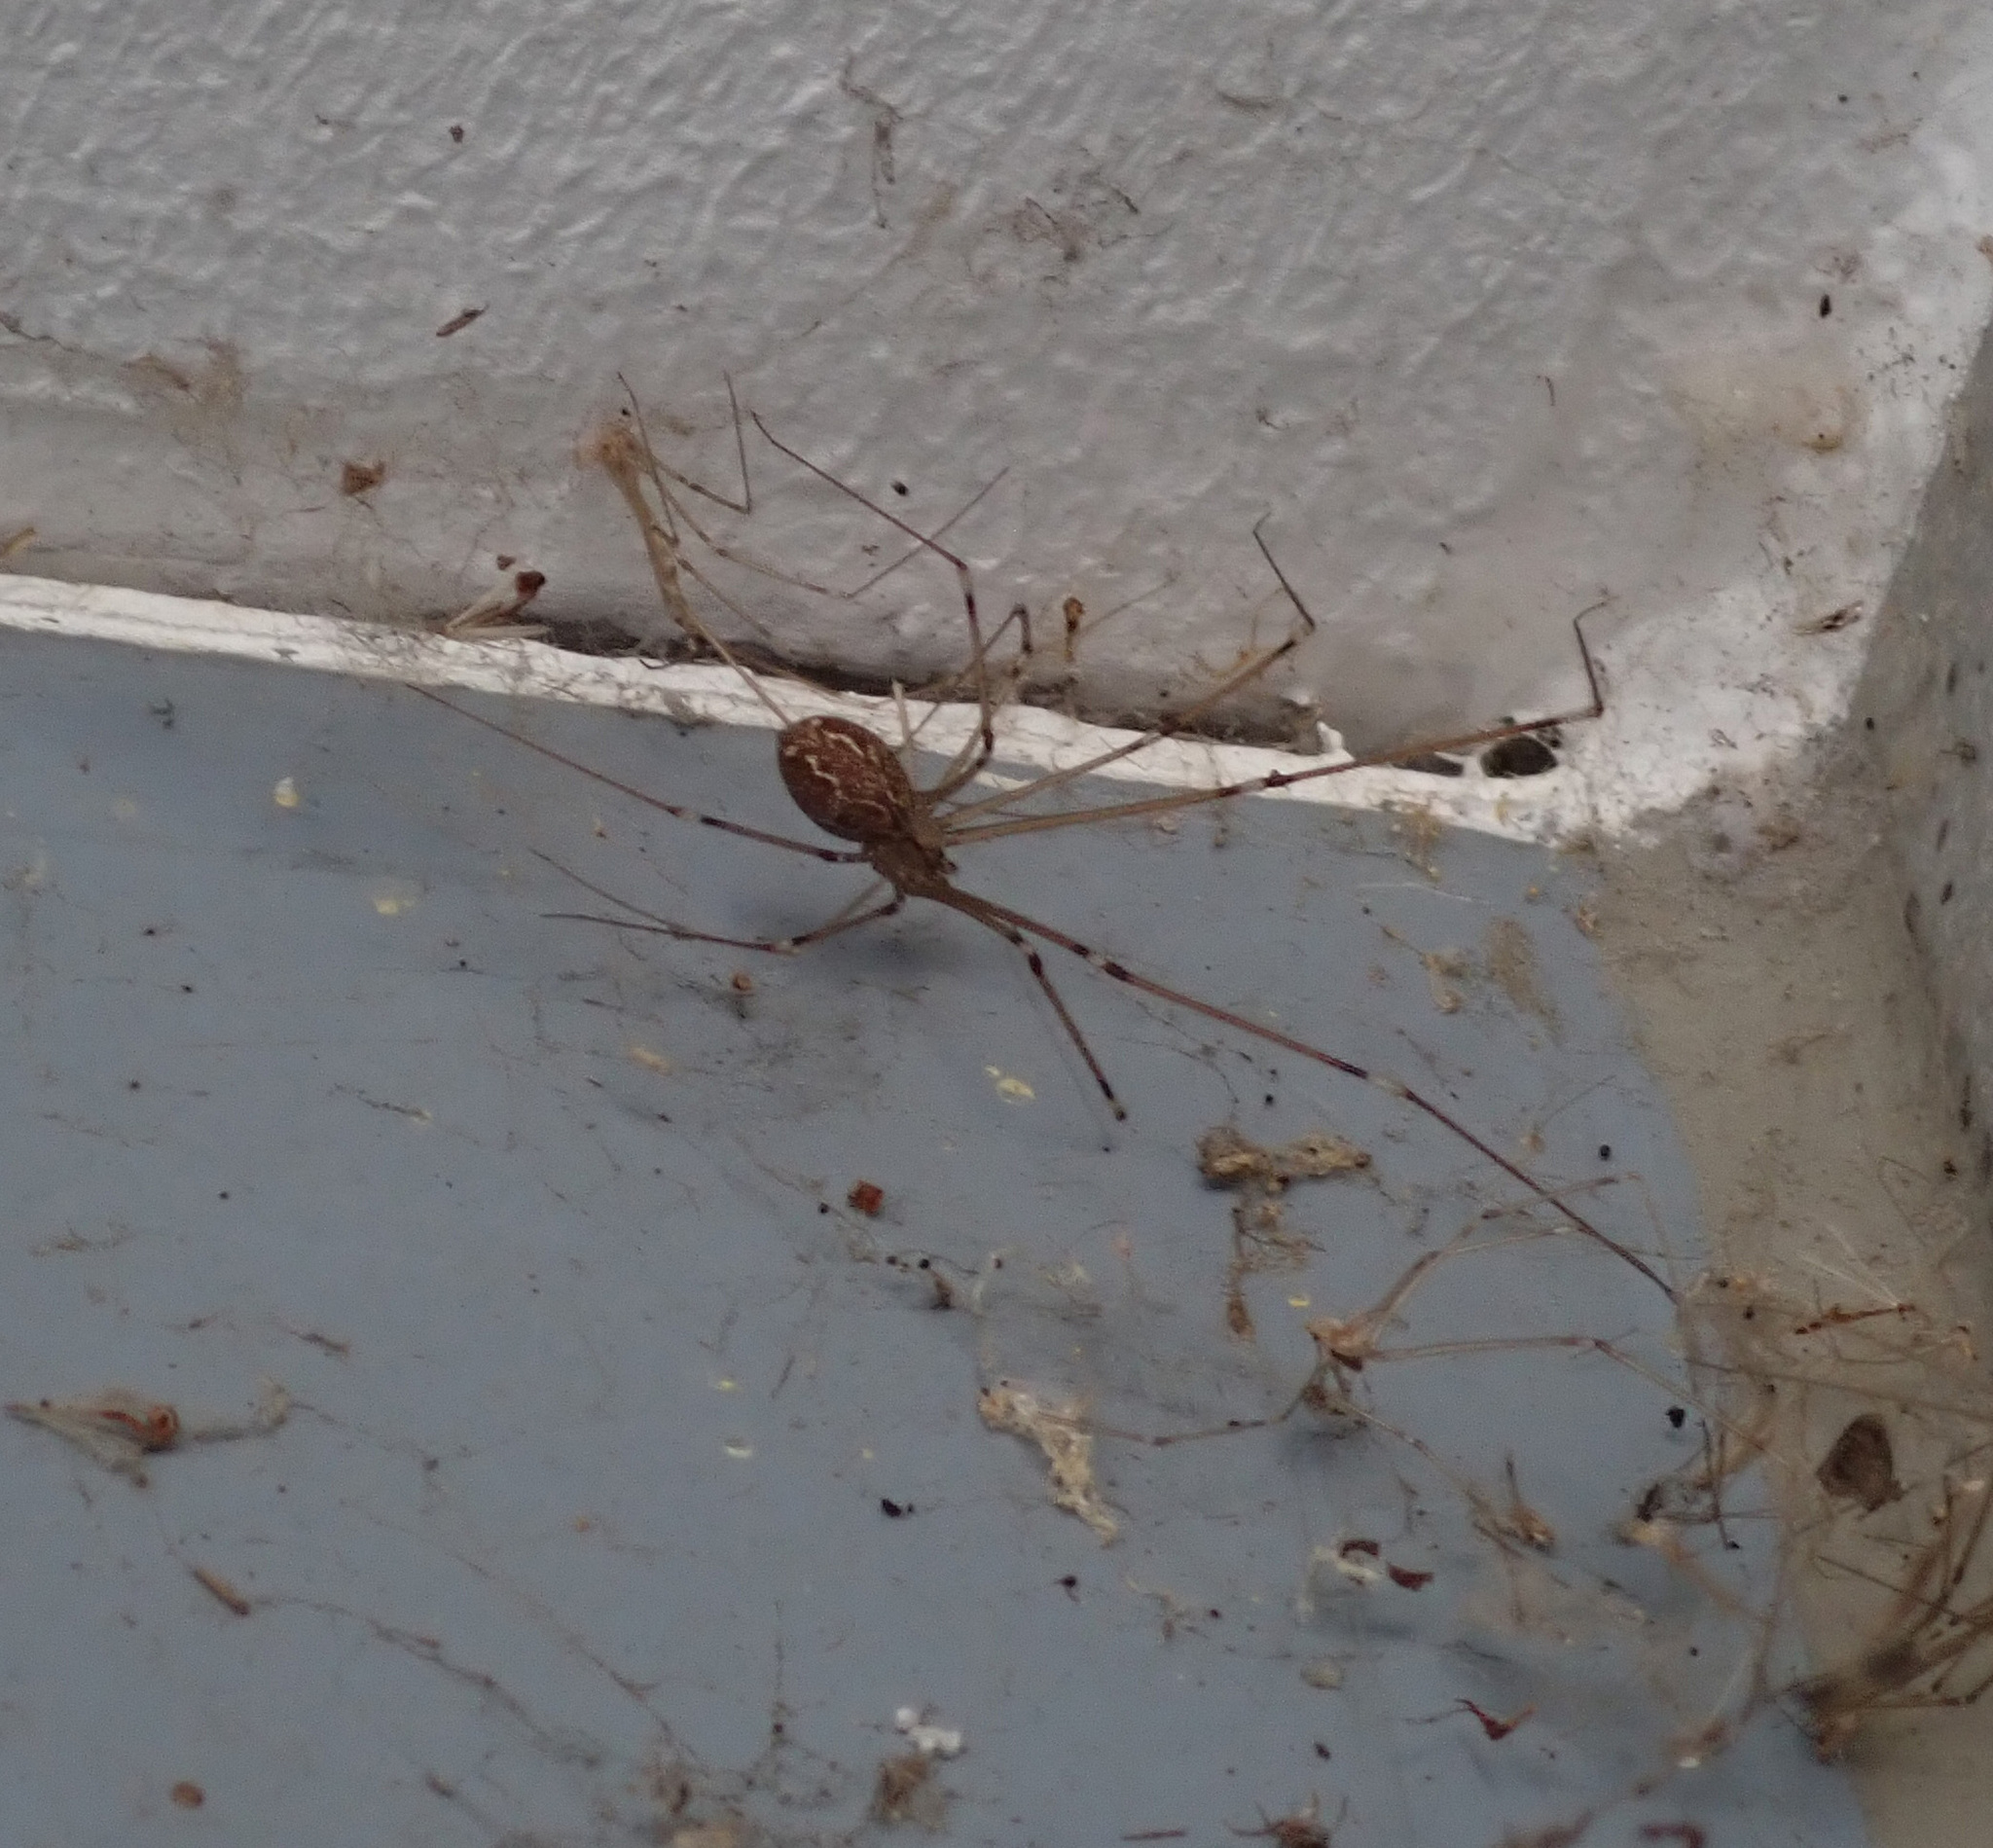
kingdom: Animalia
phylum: Arthropoda
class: Arachnida
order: Araneae
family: Pholcidae
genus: Holocnemus
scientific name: Holocnemus pluchei
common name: Marbled cellar spider
